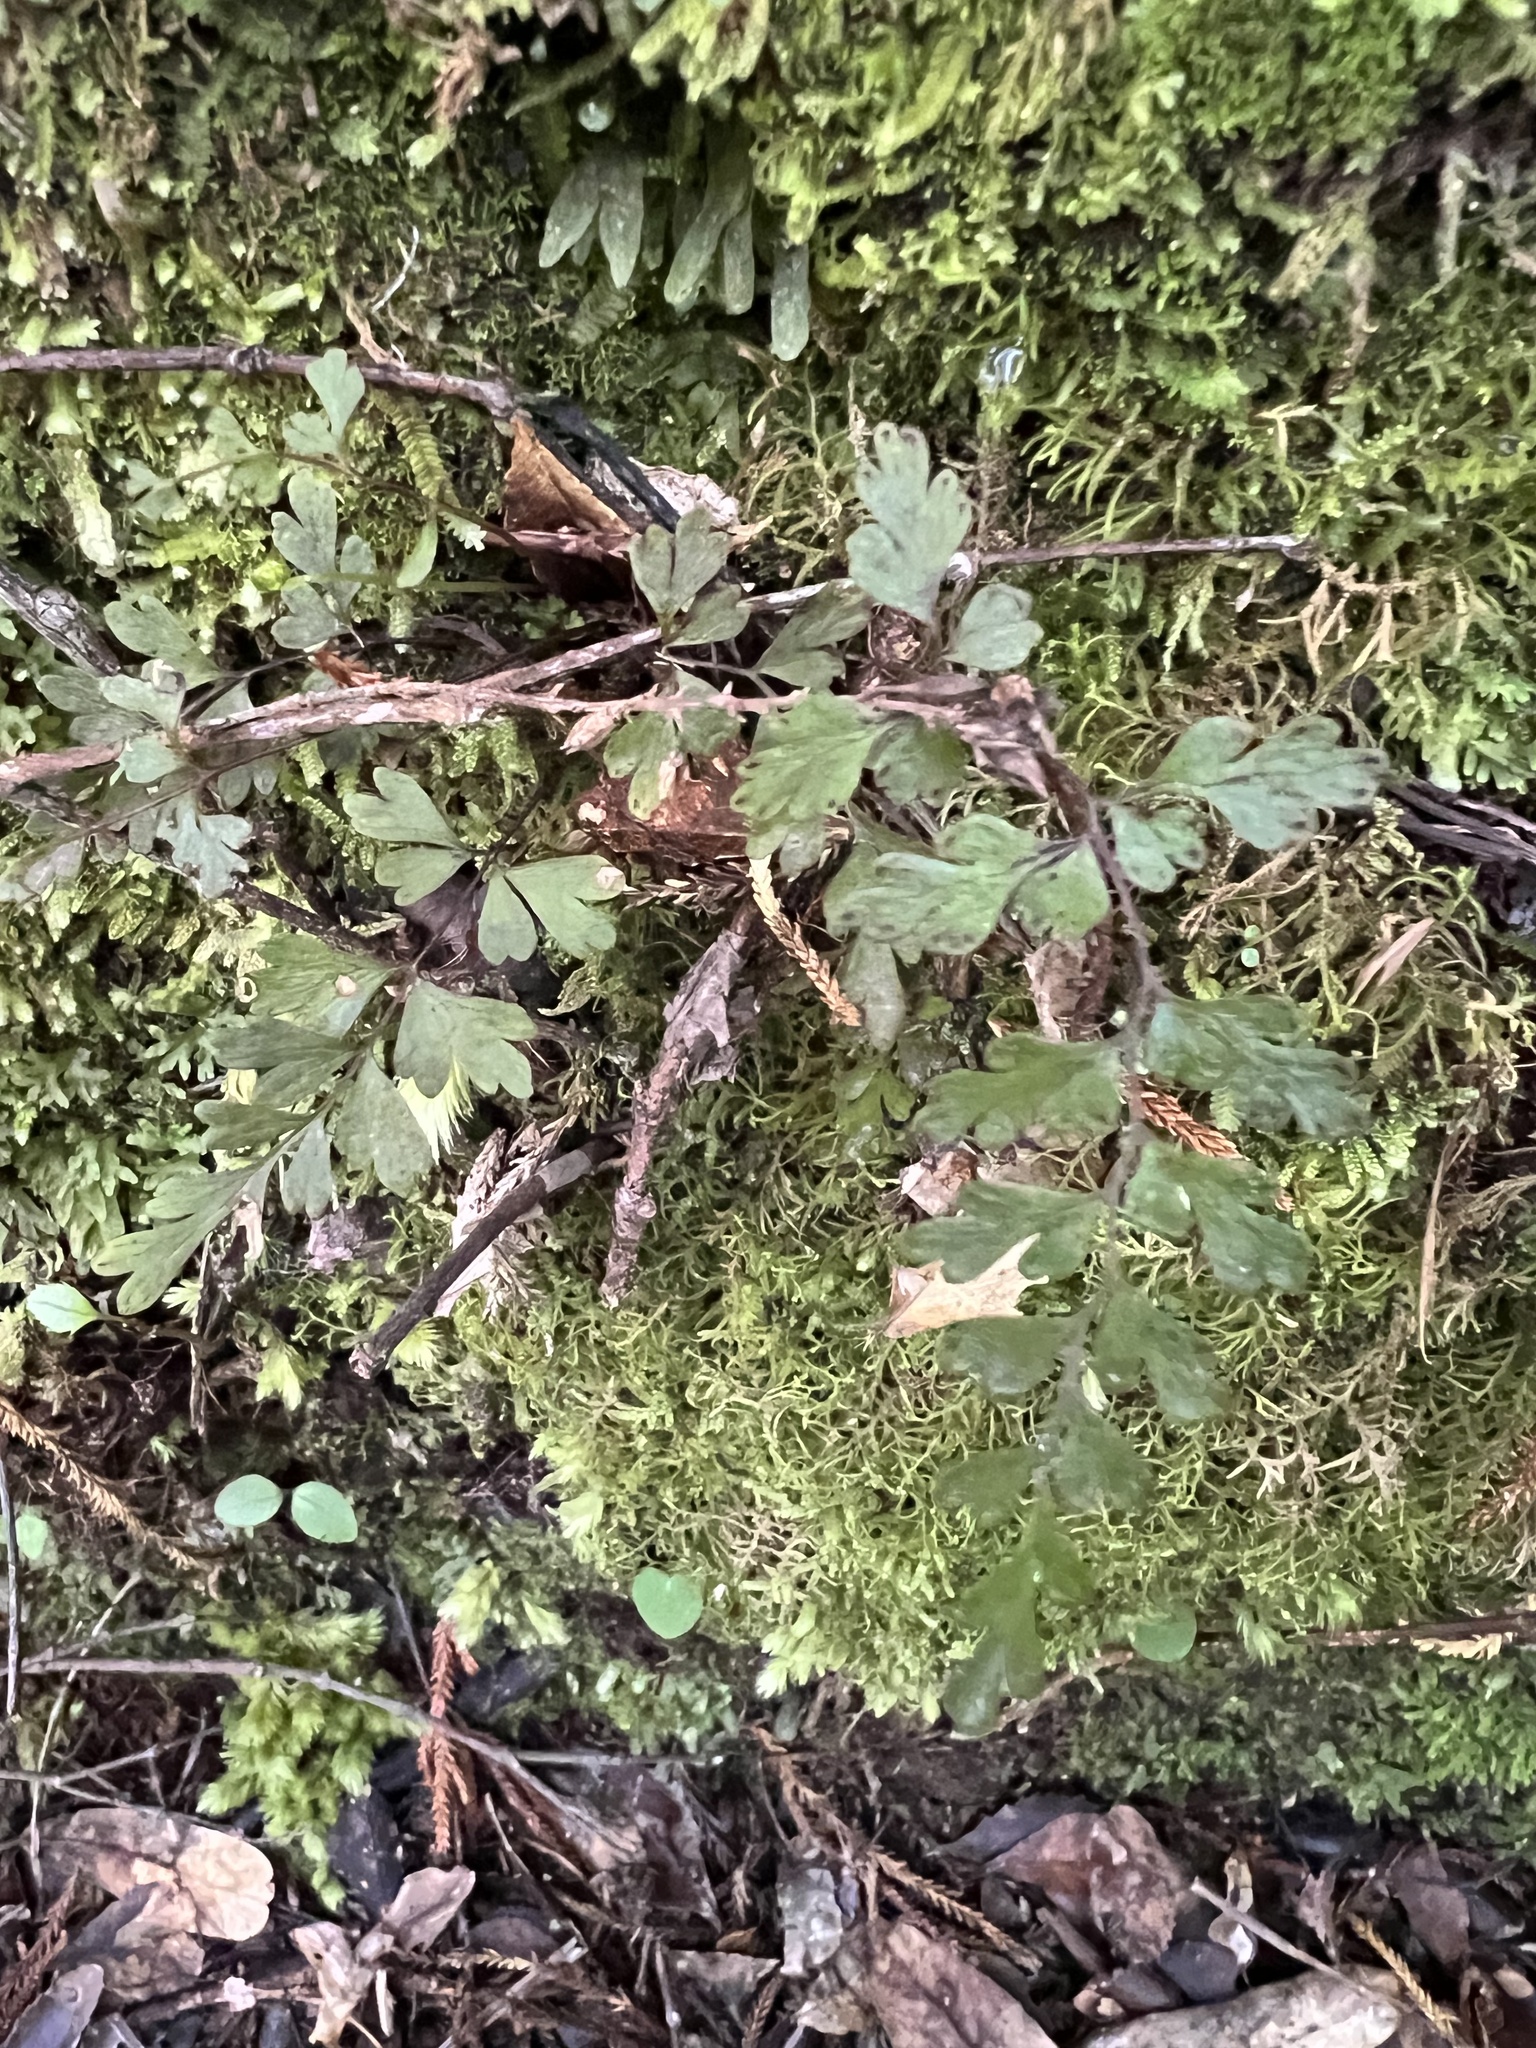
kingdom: Plantae
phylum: Tracheophyta
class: Polypodiopsida
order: Polypodiales
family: Lindsaeaceae
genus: Lindsaea
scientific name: Lindsaea trichomanoides
